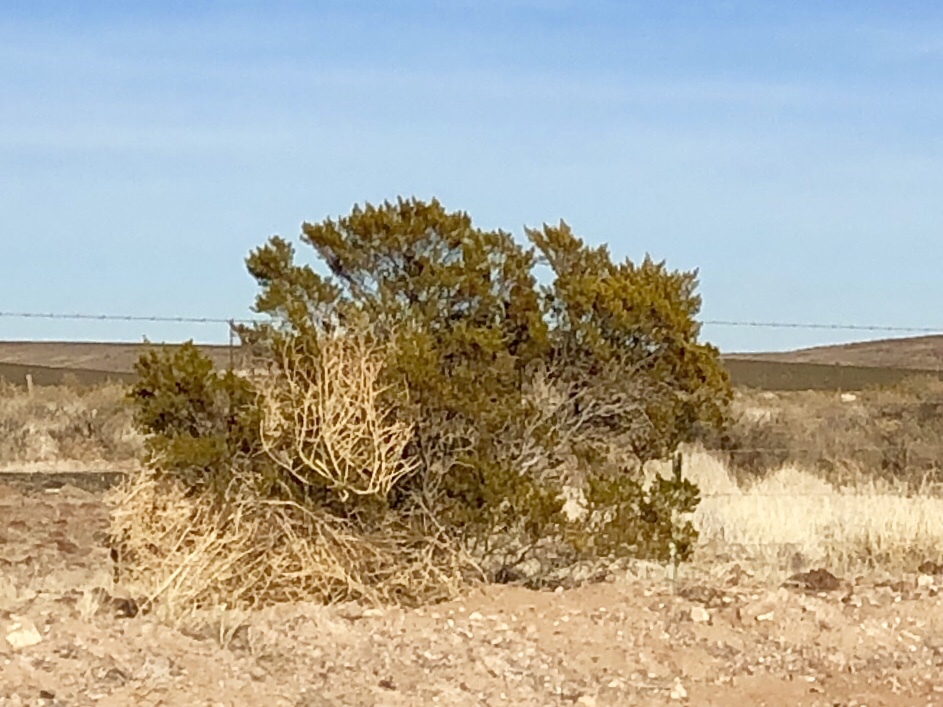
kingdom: Plantae
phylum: Tracheophyta
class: Magnoliopsida
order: Zygophyllales
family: Zygophyllaceae
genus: Larrea
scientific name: Larrea tridentata
